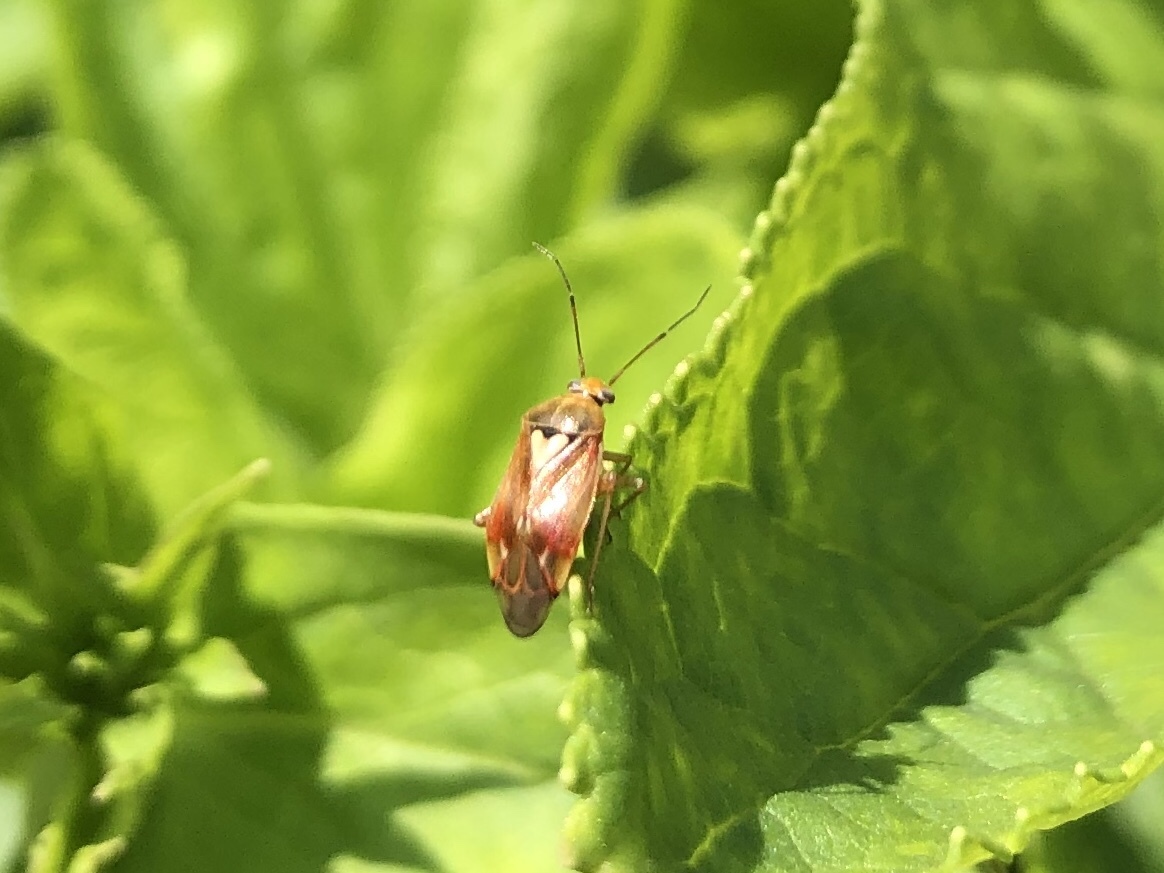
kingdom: Animalia
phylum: Arthropoda
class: Insecta
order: Hemiptera
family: Miridae
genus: Lygus
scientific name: Lygus pratensis
